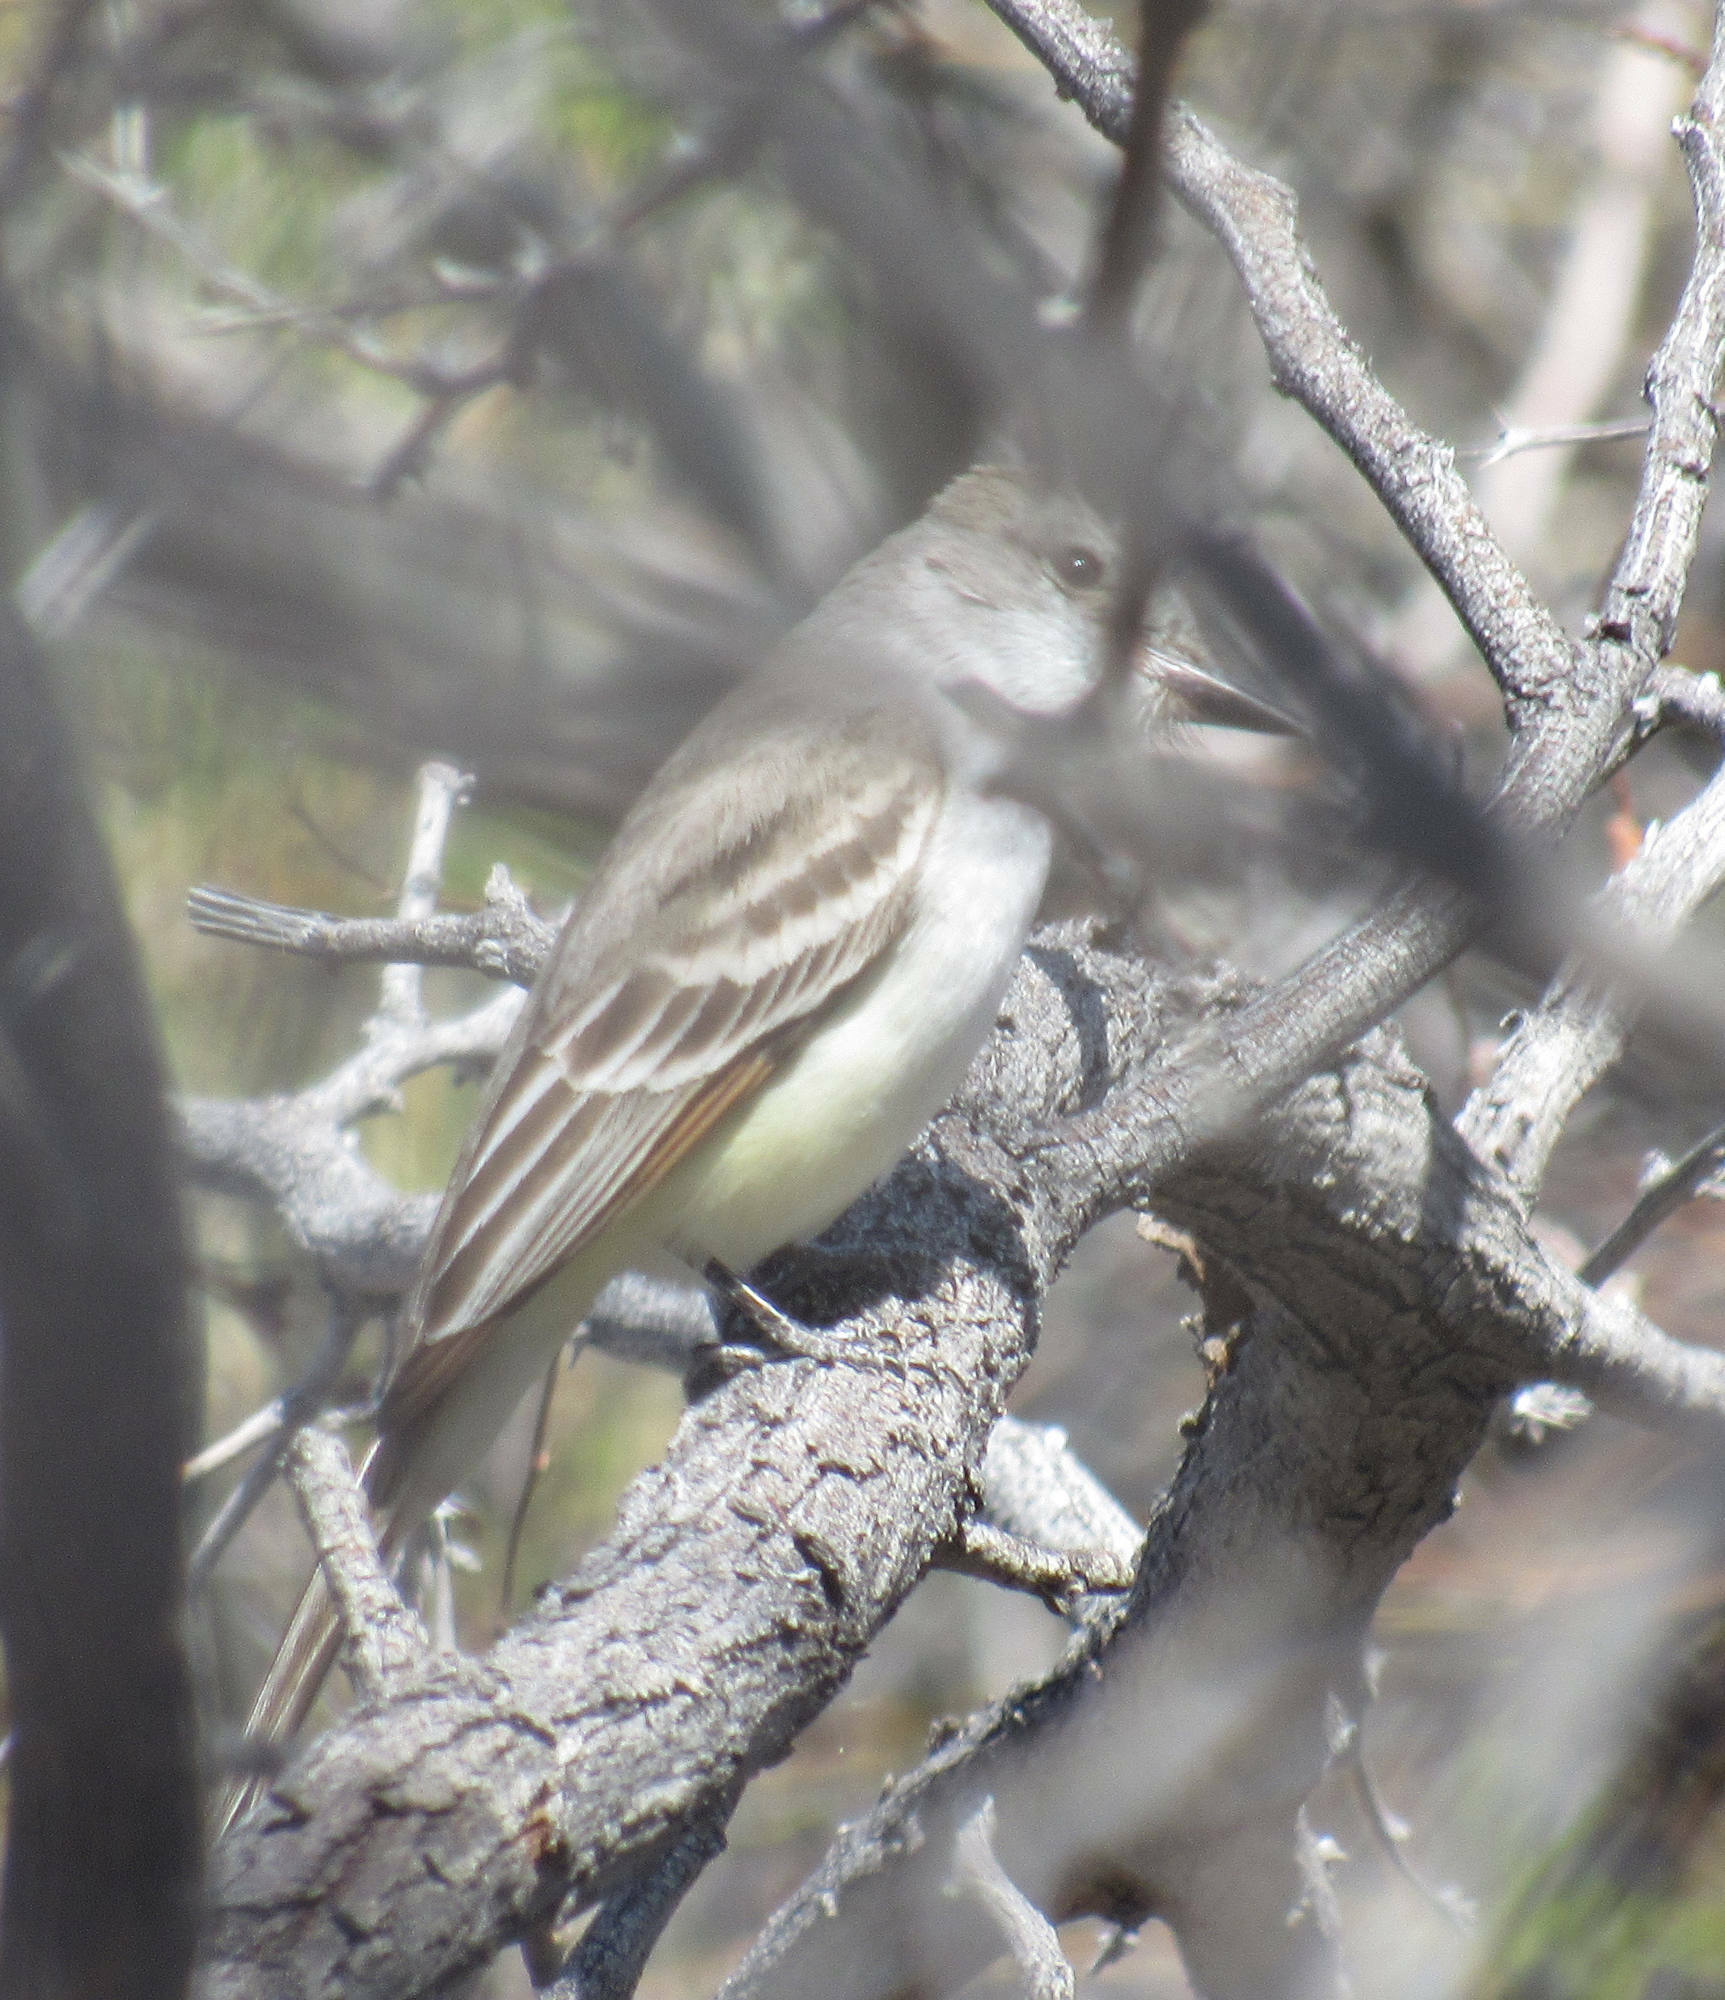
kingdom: Animalia
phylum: Chordata
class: Aves
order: Passeriformes
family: Tyrannidae
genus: Myiarchus
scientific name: Myiarchus cinerascens
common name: Ash-throated flycatcher
